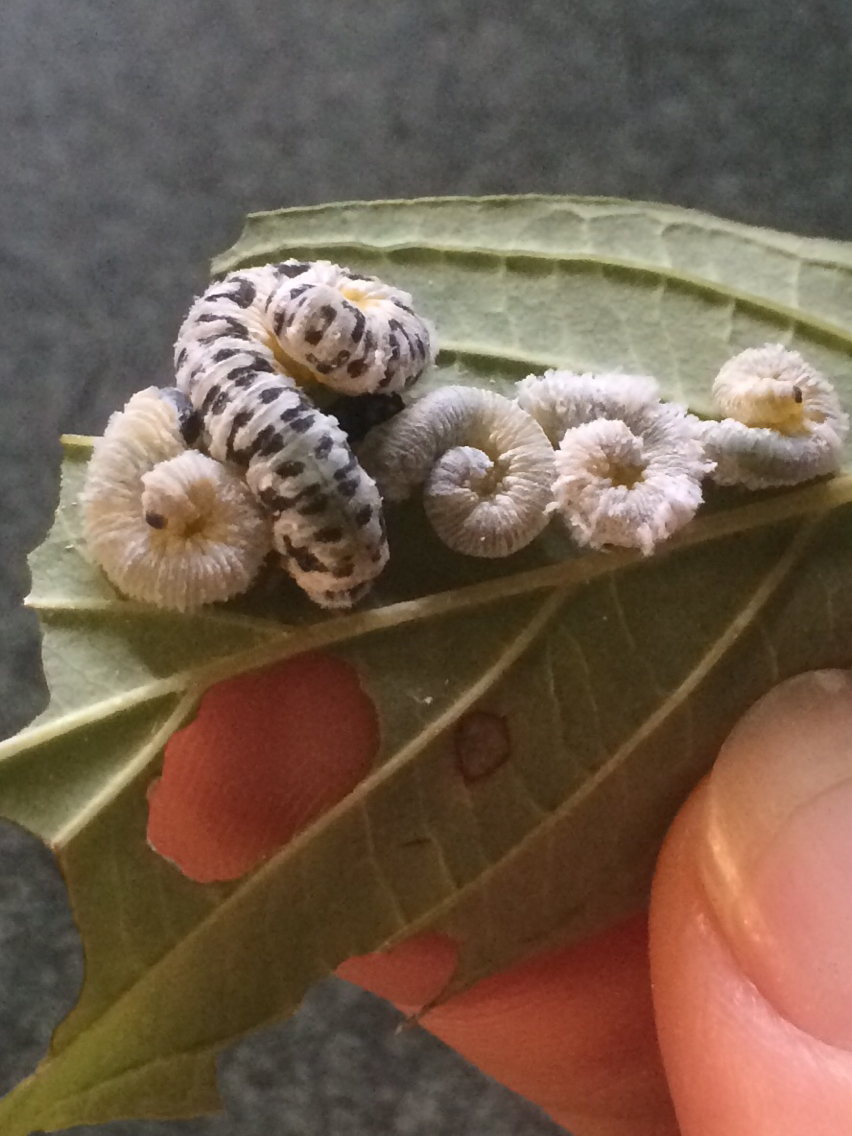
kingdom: Animalia
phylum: Arthropoda
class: Insecta
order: Hymenoptera
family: Tenthredinidae
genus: Macremphytus
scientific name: Macremphytus
